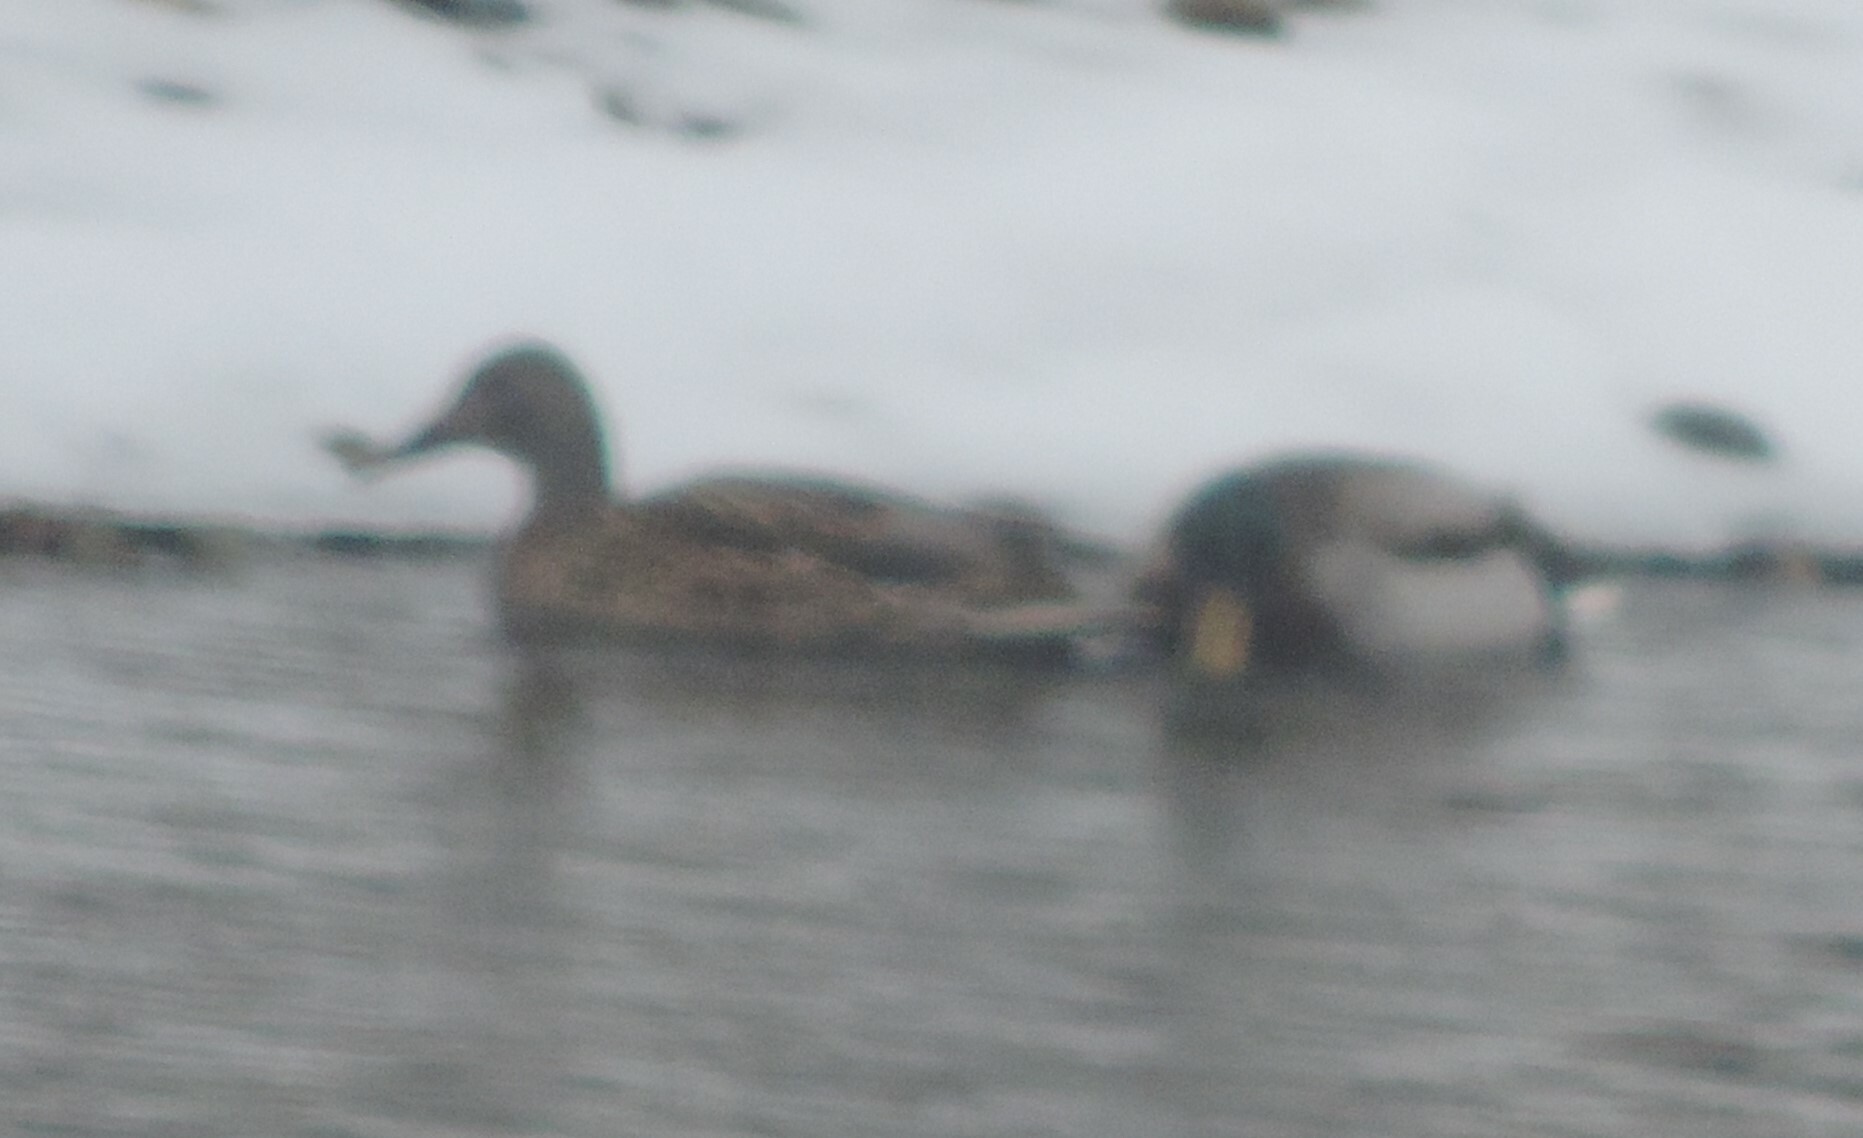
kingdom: Animalia
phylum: Chordata
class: Aves
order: Anseriformes
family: Anatidae
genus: Anas
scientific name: Anas platyrhynchos
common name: Mallard
